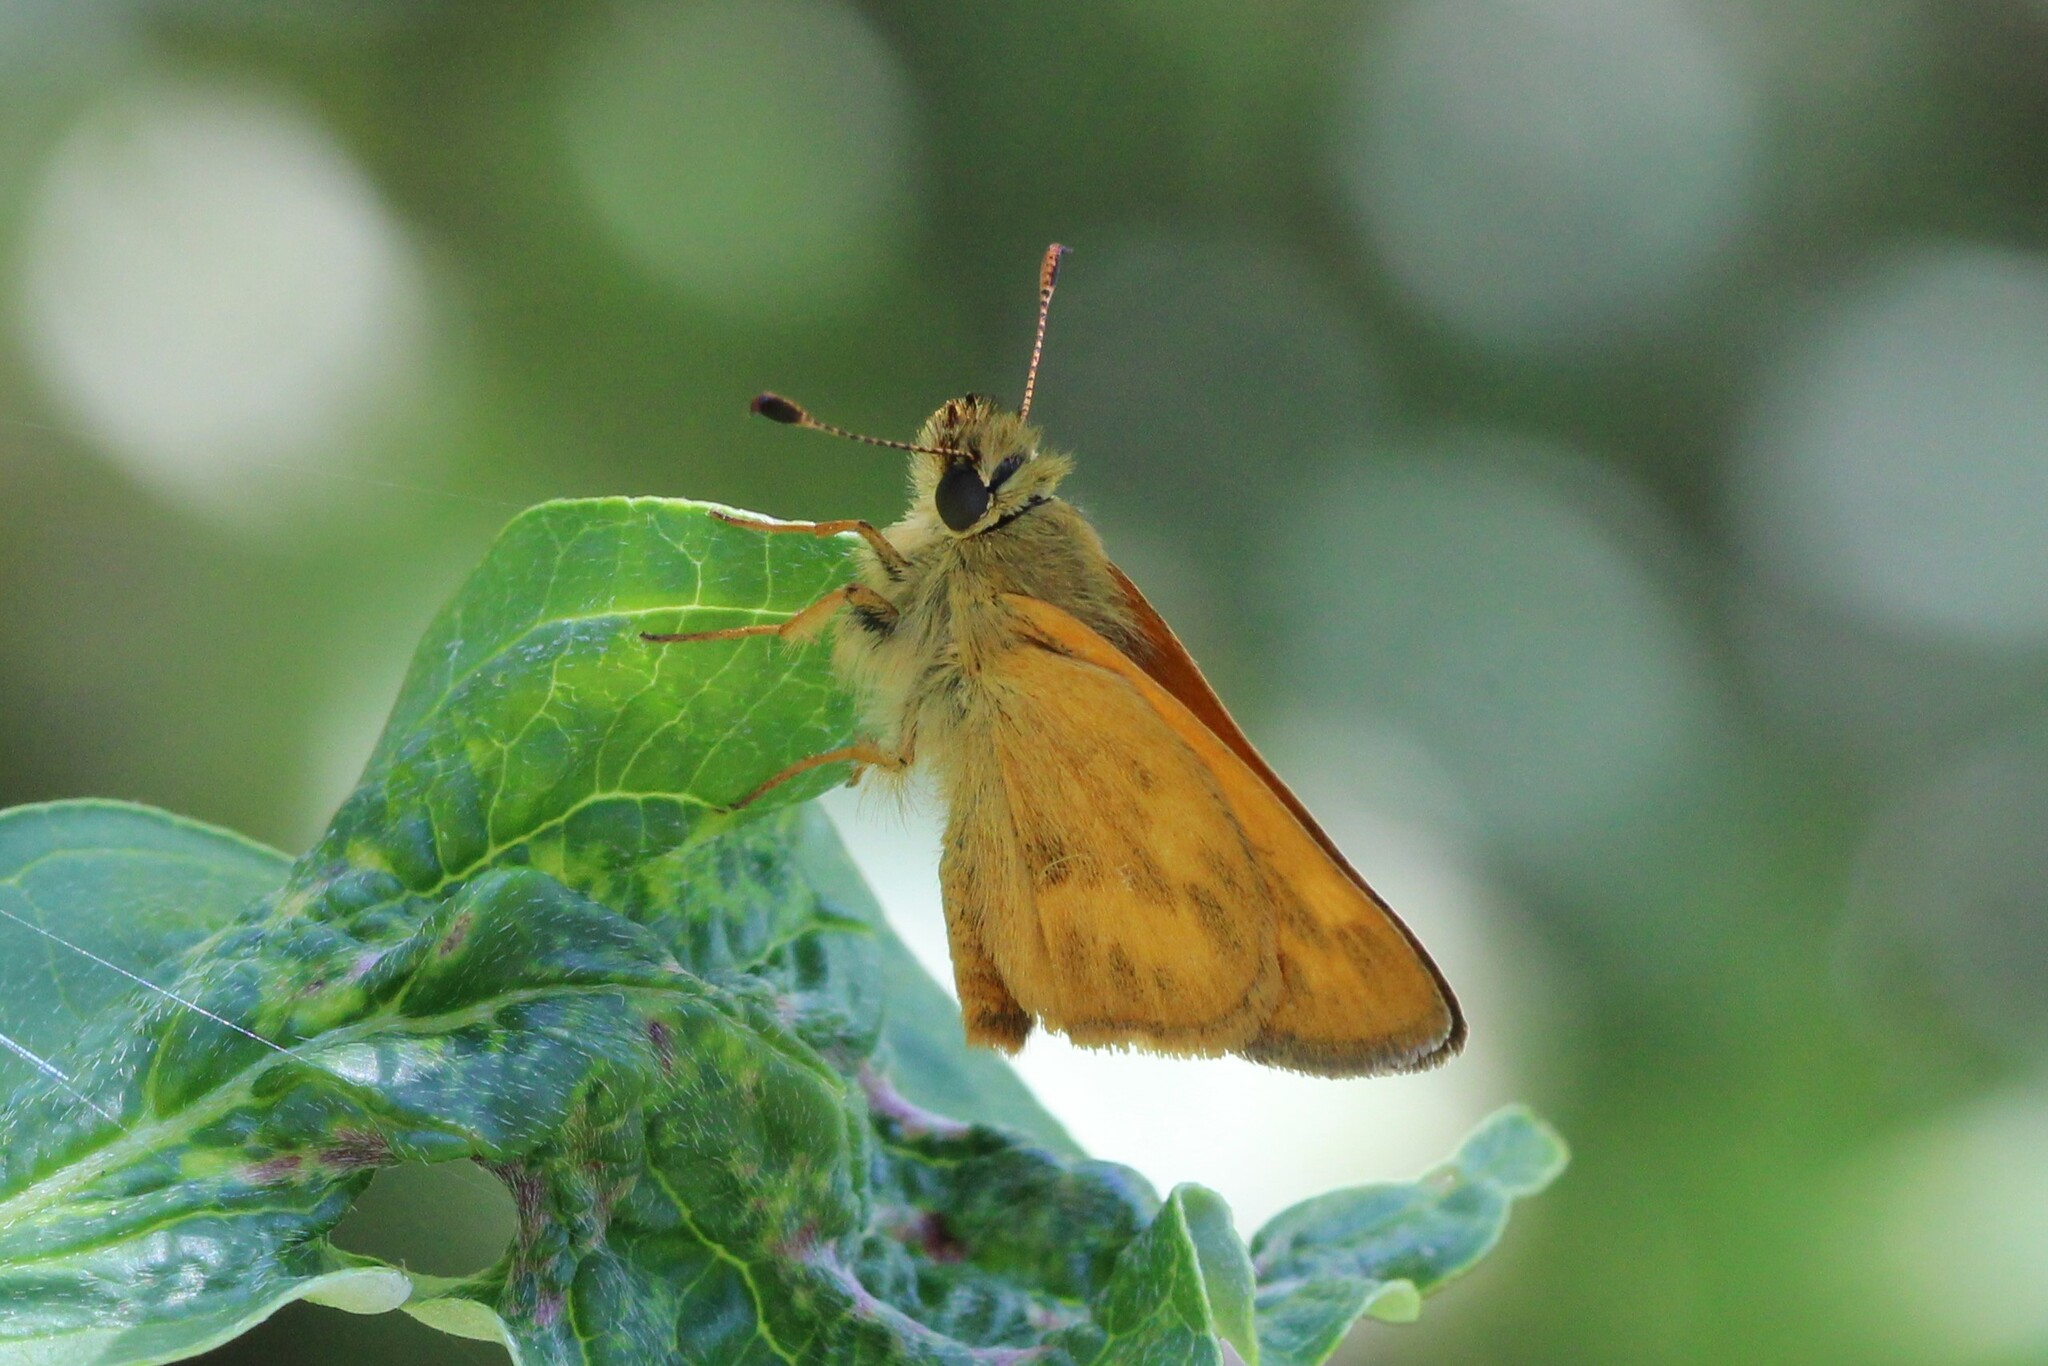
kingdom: Animalia
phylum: Arthropoda
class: Insecta
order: Lepidoptera
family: Hesperiidae
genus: Ochlodes
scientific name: Ochlodes sylvanoides
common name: Woodland skipper
